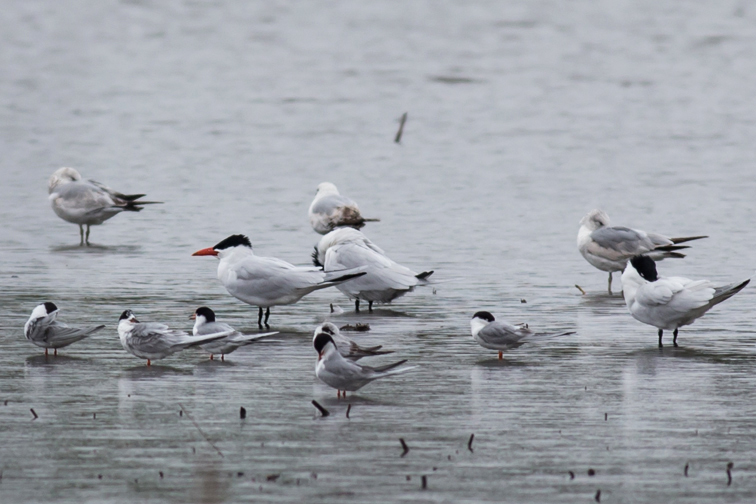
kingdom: Animalia
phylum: Chordata
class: Aves
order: Charadriiformes
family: Laridae
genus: Hydroprogne
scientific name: Hydroprogne caspia
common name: Caspian tern
